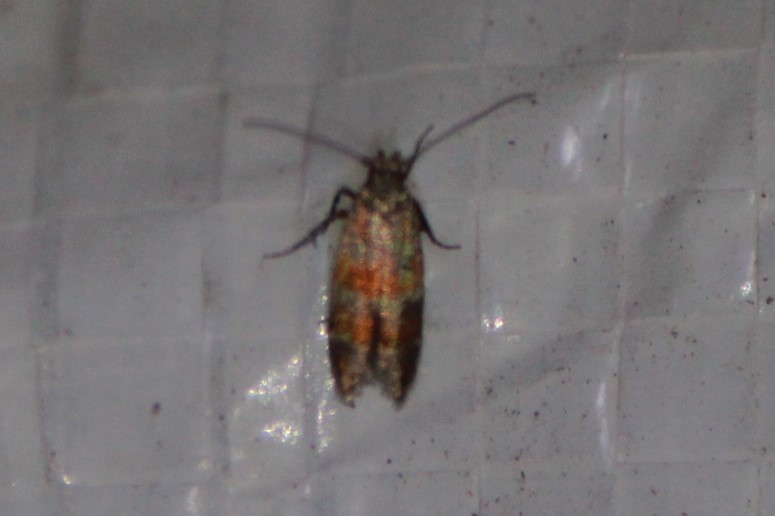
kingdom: Animalia
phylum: Arthropoda
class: Insecta
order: Lepidoptera
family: Gelechiidae
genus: Battaristis
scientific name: Battaristis vittella
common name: Orange stripe-backed moth
